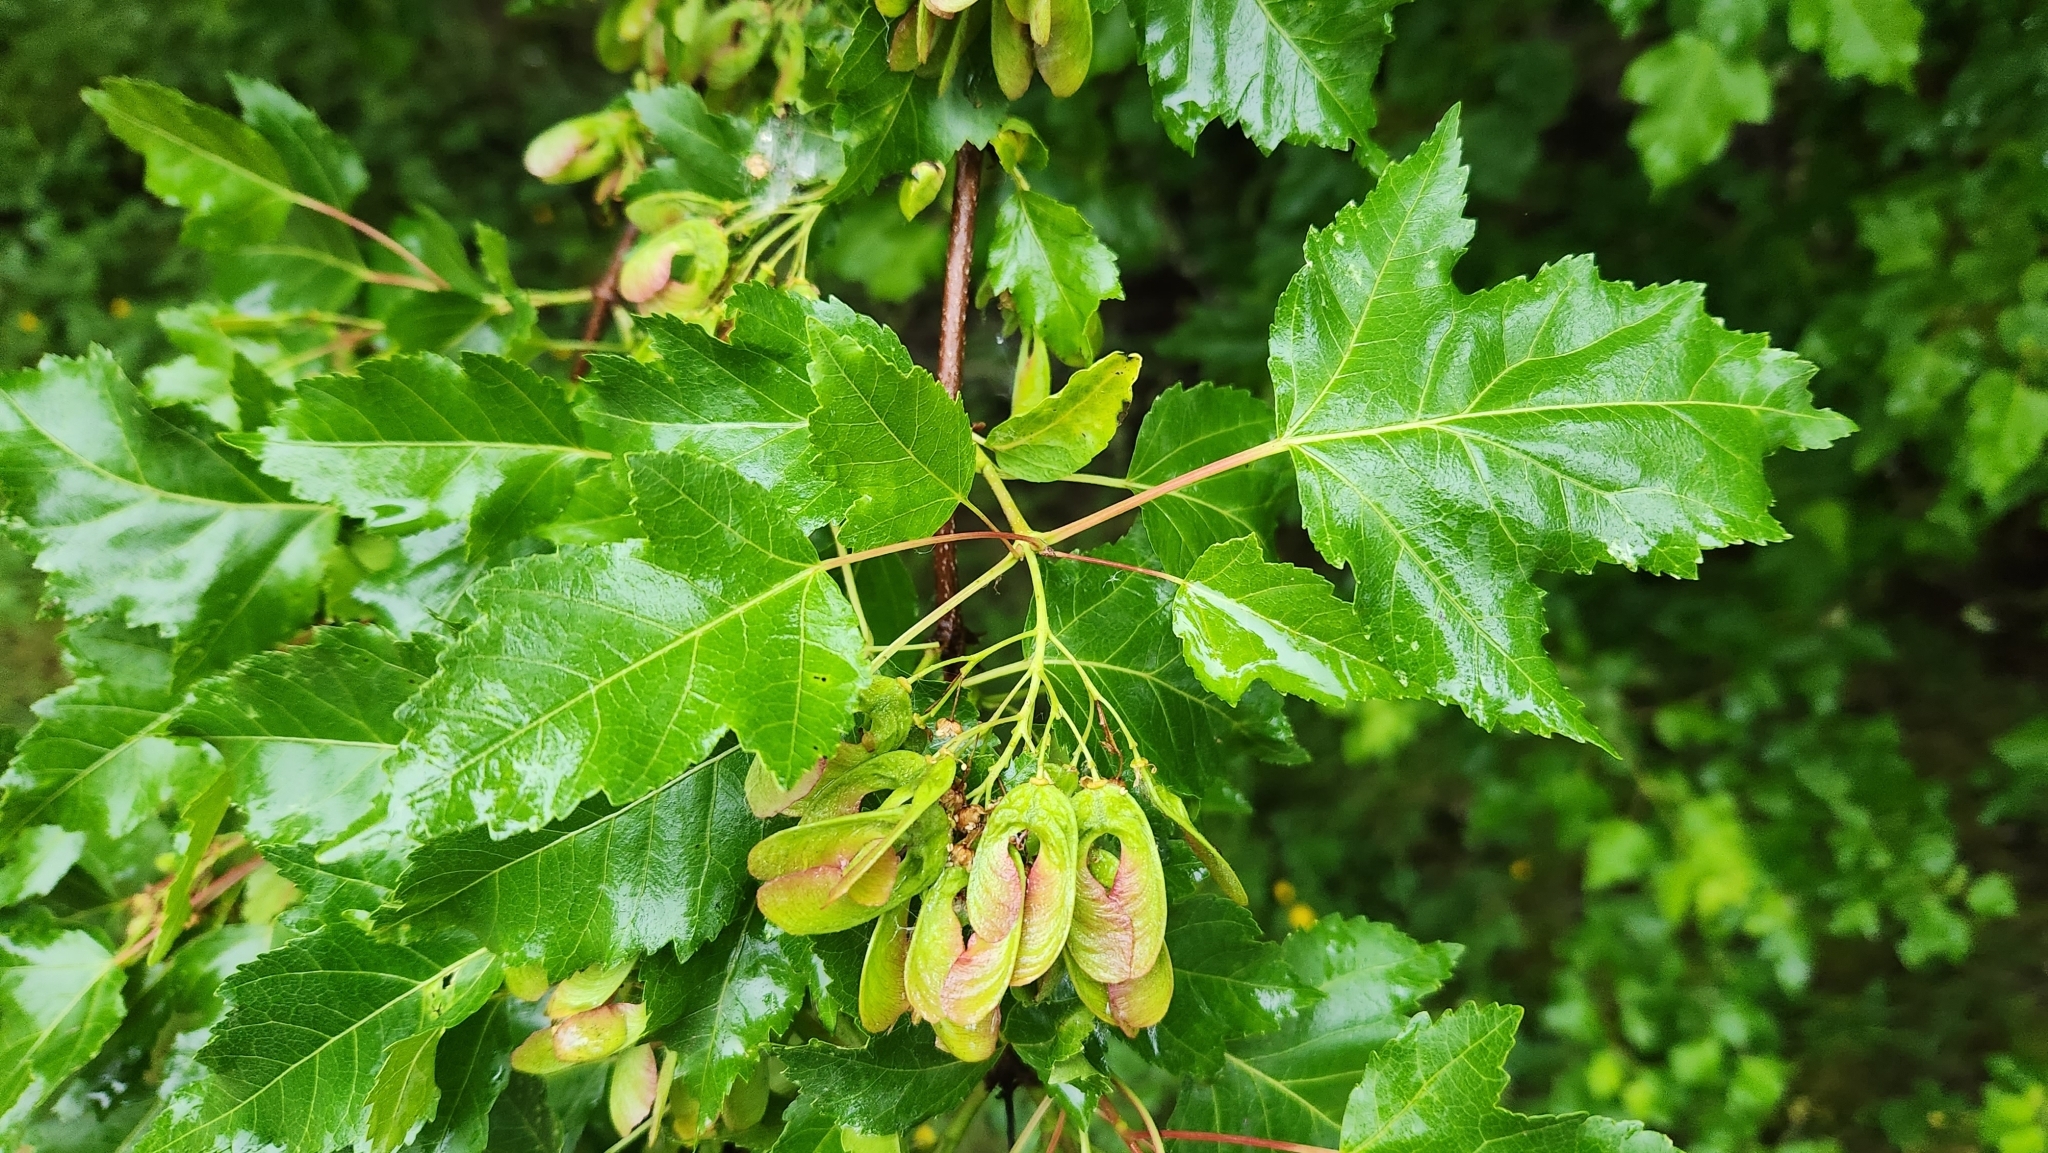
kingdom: Plantae
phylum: Tracheophyta
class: Magnoliopsida
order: Sapindales
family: Sapindaceae
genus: Acer
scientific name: Acer tataricum
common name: Tartar maple
